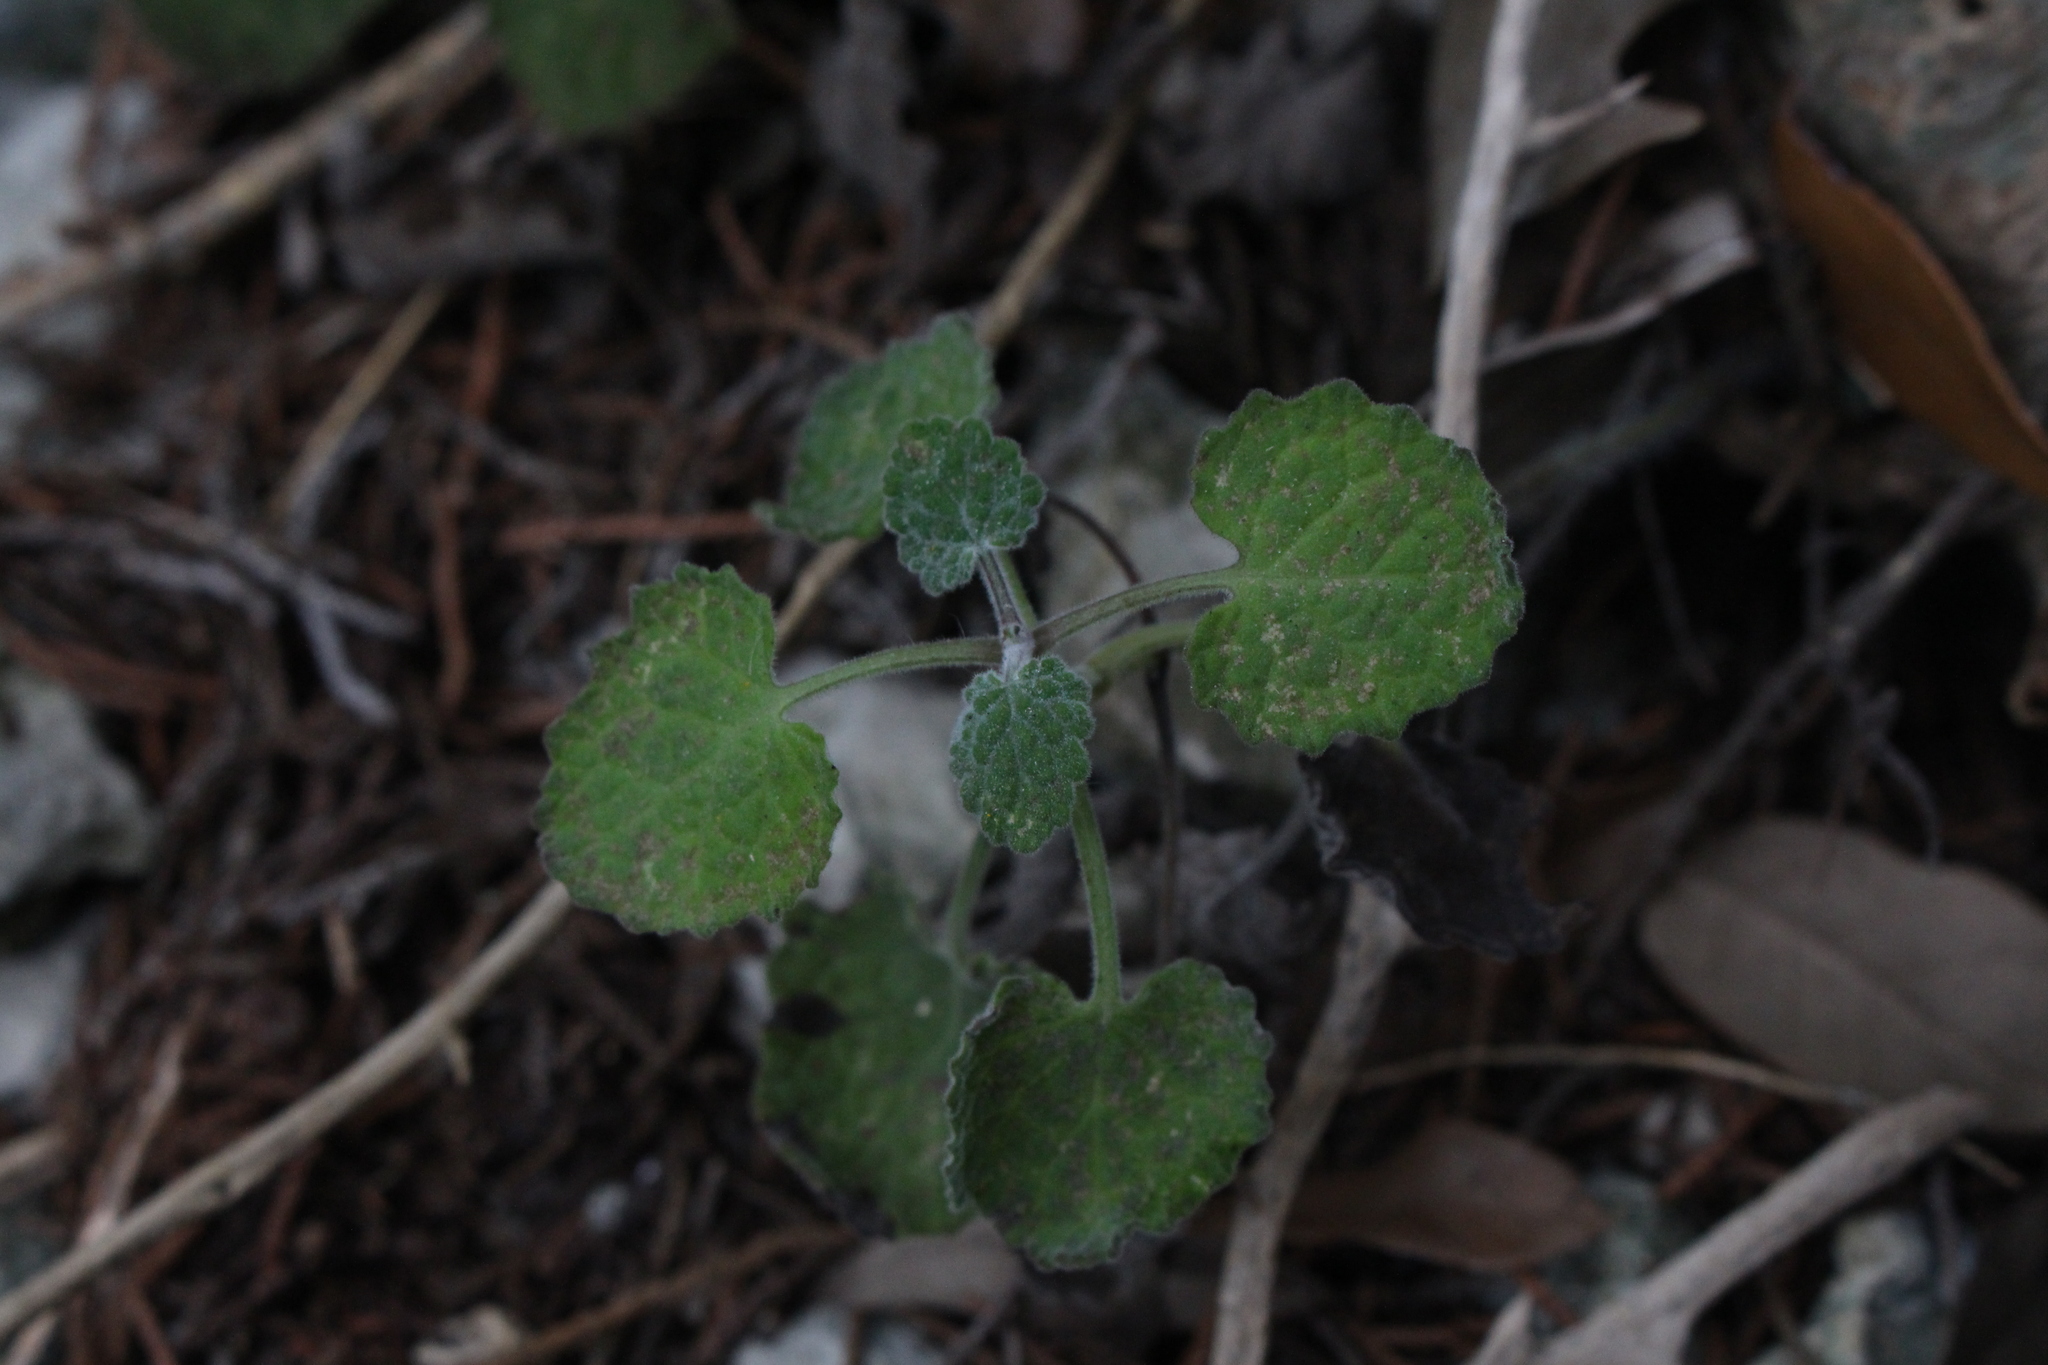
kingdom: Plantae
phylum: Tracheophyta
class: Magnoliopsida
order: Lamiales
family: Lamiaceae
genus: Salvia
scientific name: Salvia roemeriana
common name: Cedar sage
